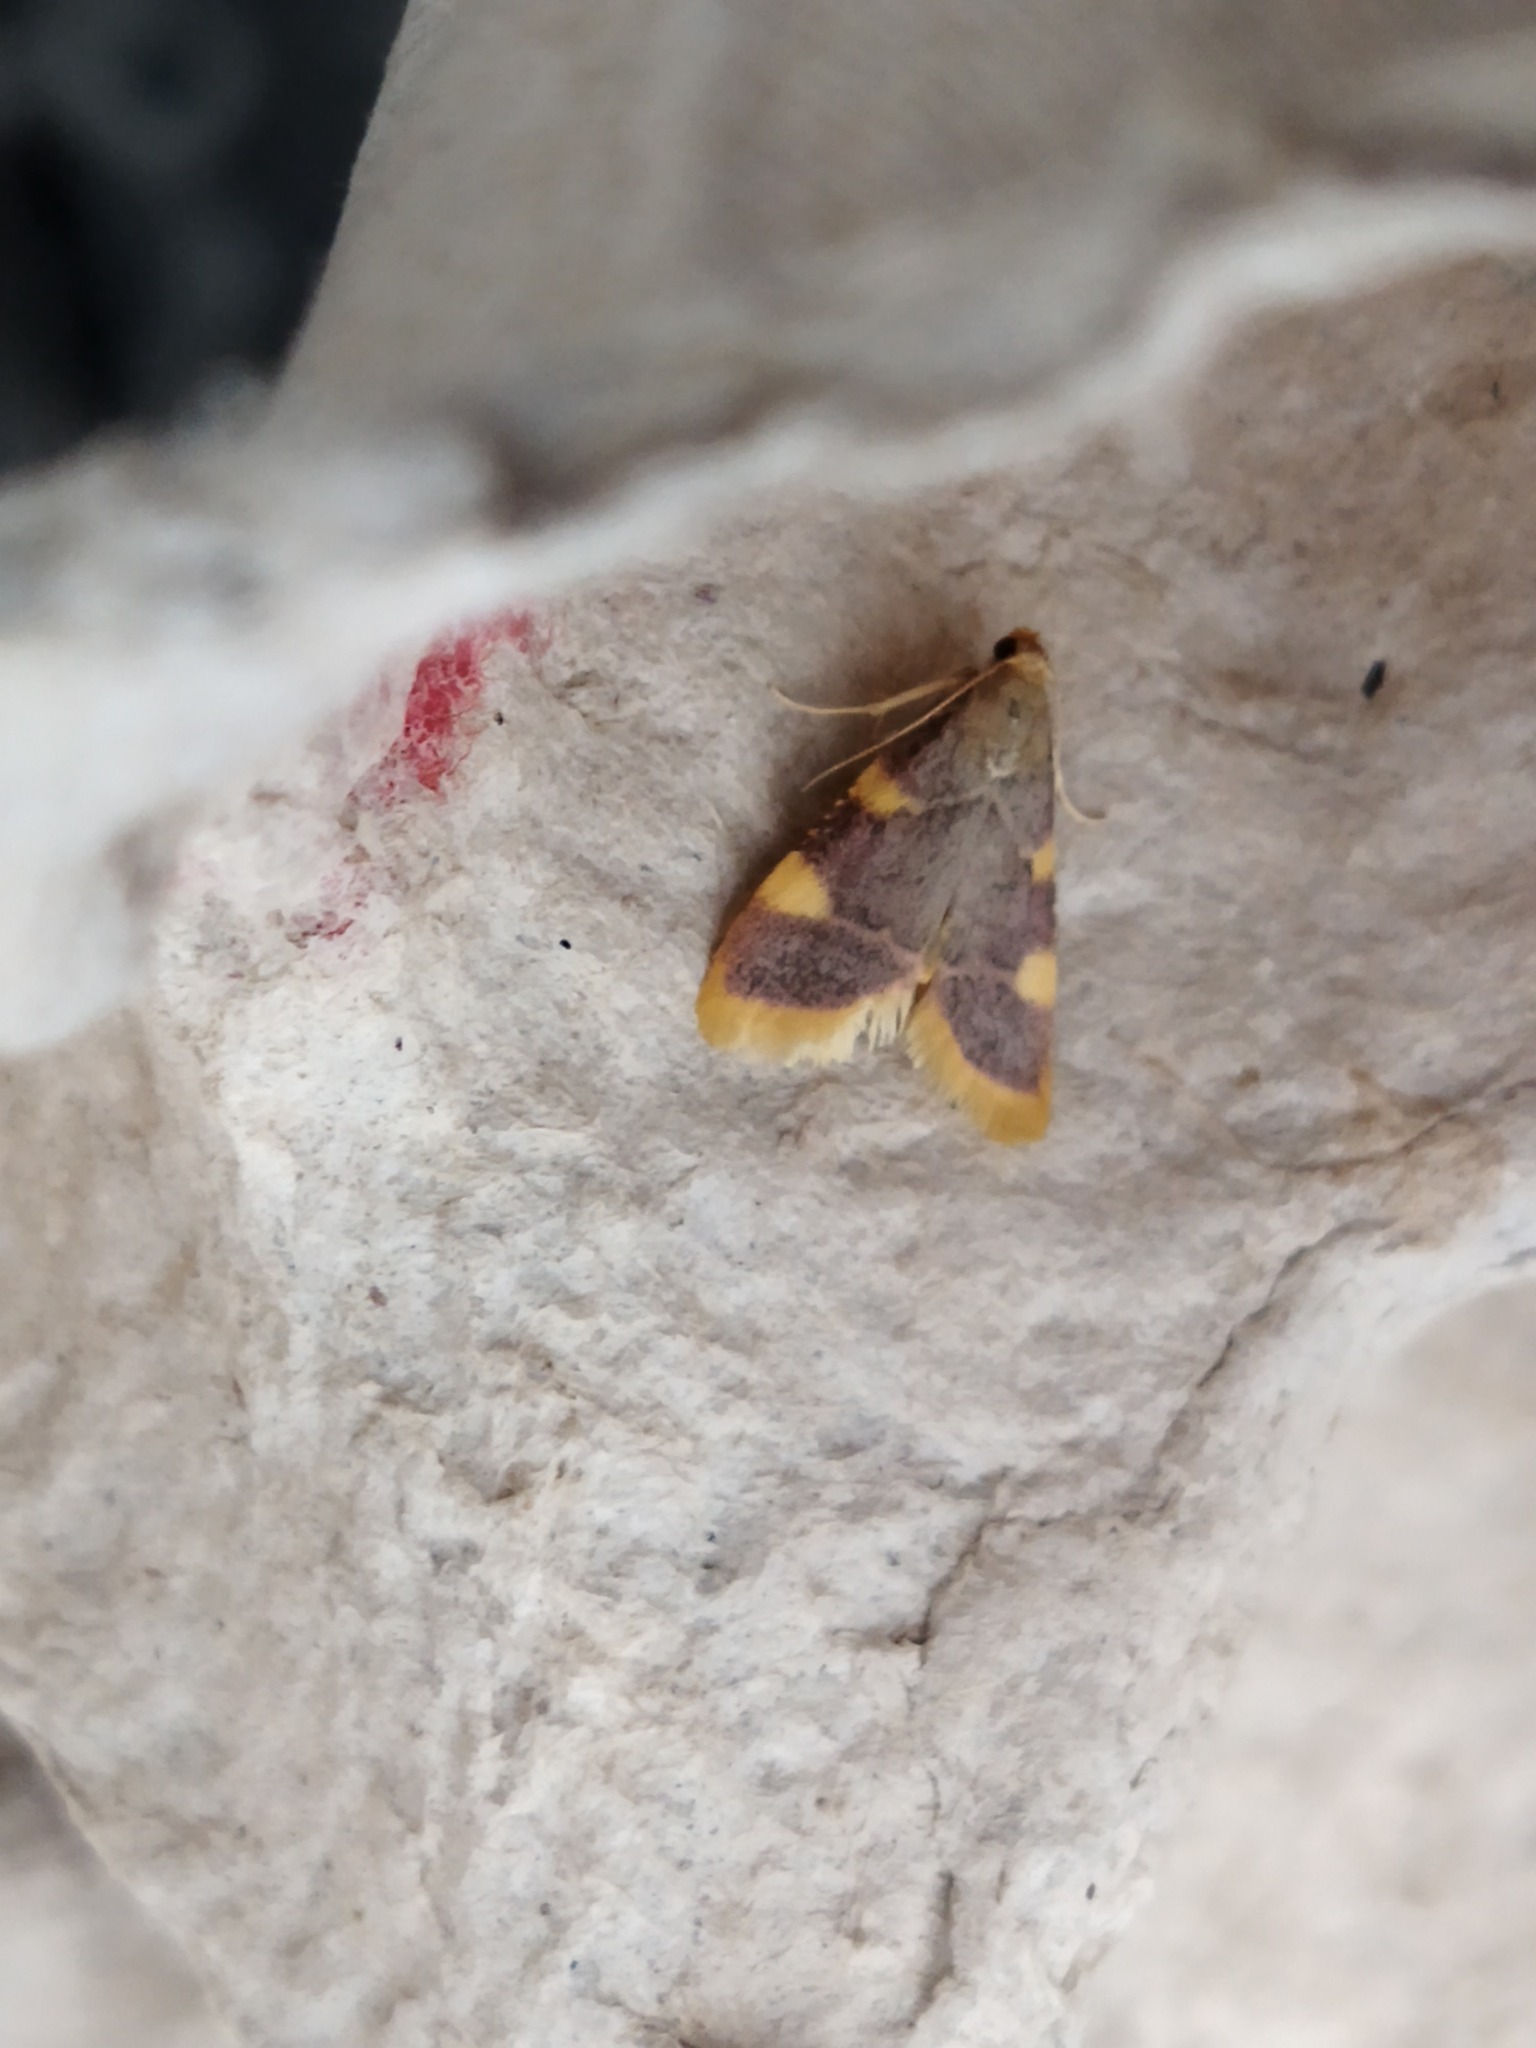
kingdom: Animalia
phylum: Arthropoda
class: Insecta
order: Lepidoptera
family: Pyralidae
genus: Hypsopygia
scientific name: Hypsopygia costalis
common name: Gold triangle
